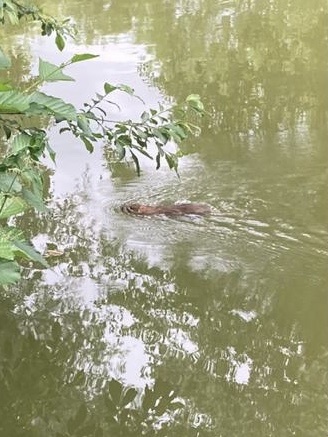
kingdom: Animalia
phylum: Chordata
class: Mammalia
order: Rodentia
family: Muridae
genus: Rattus
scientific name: Rattus norvegicus
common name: Brown rat
